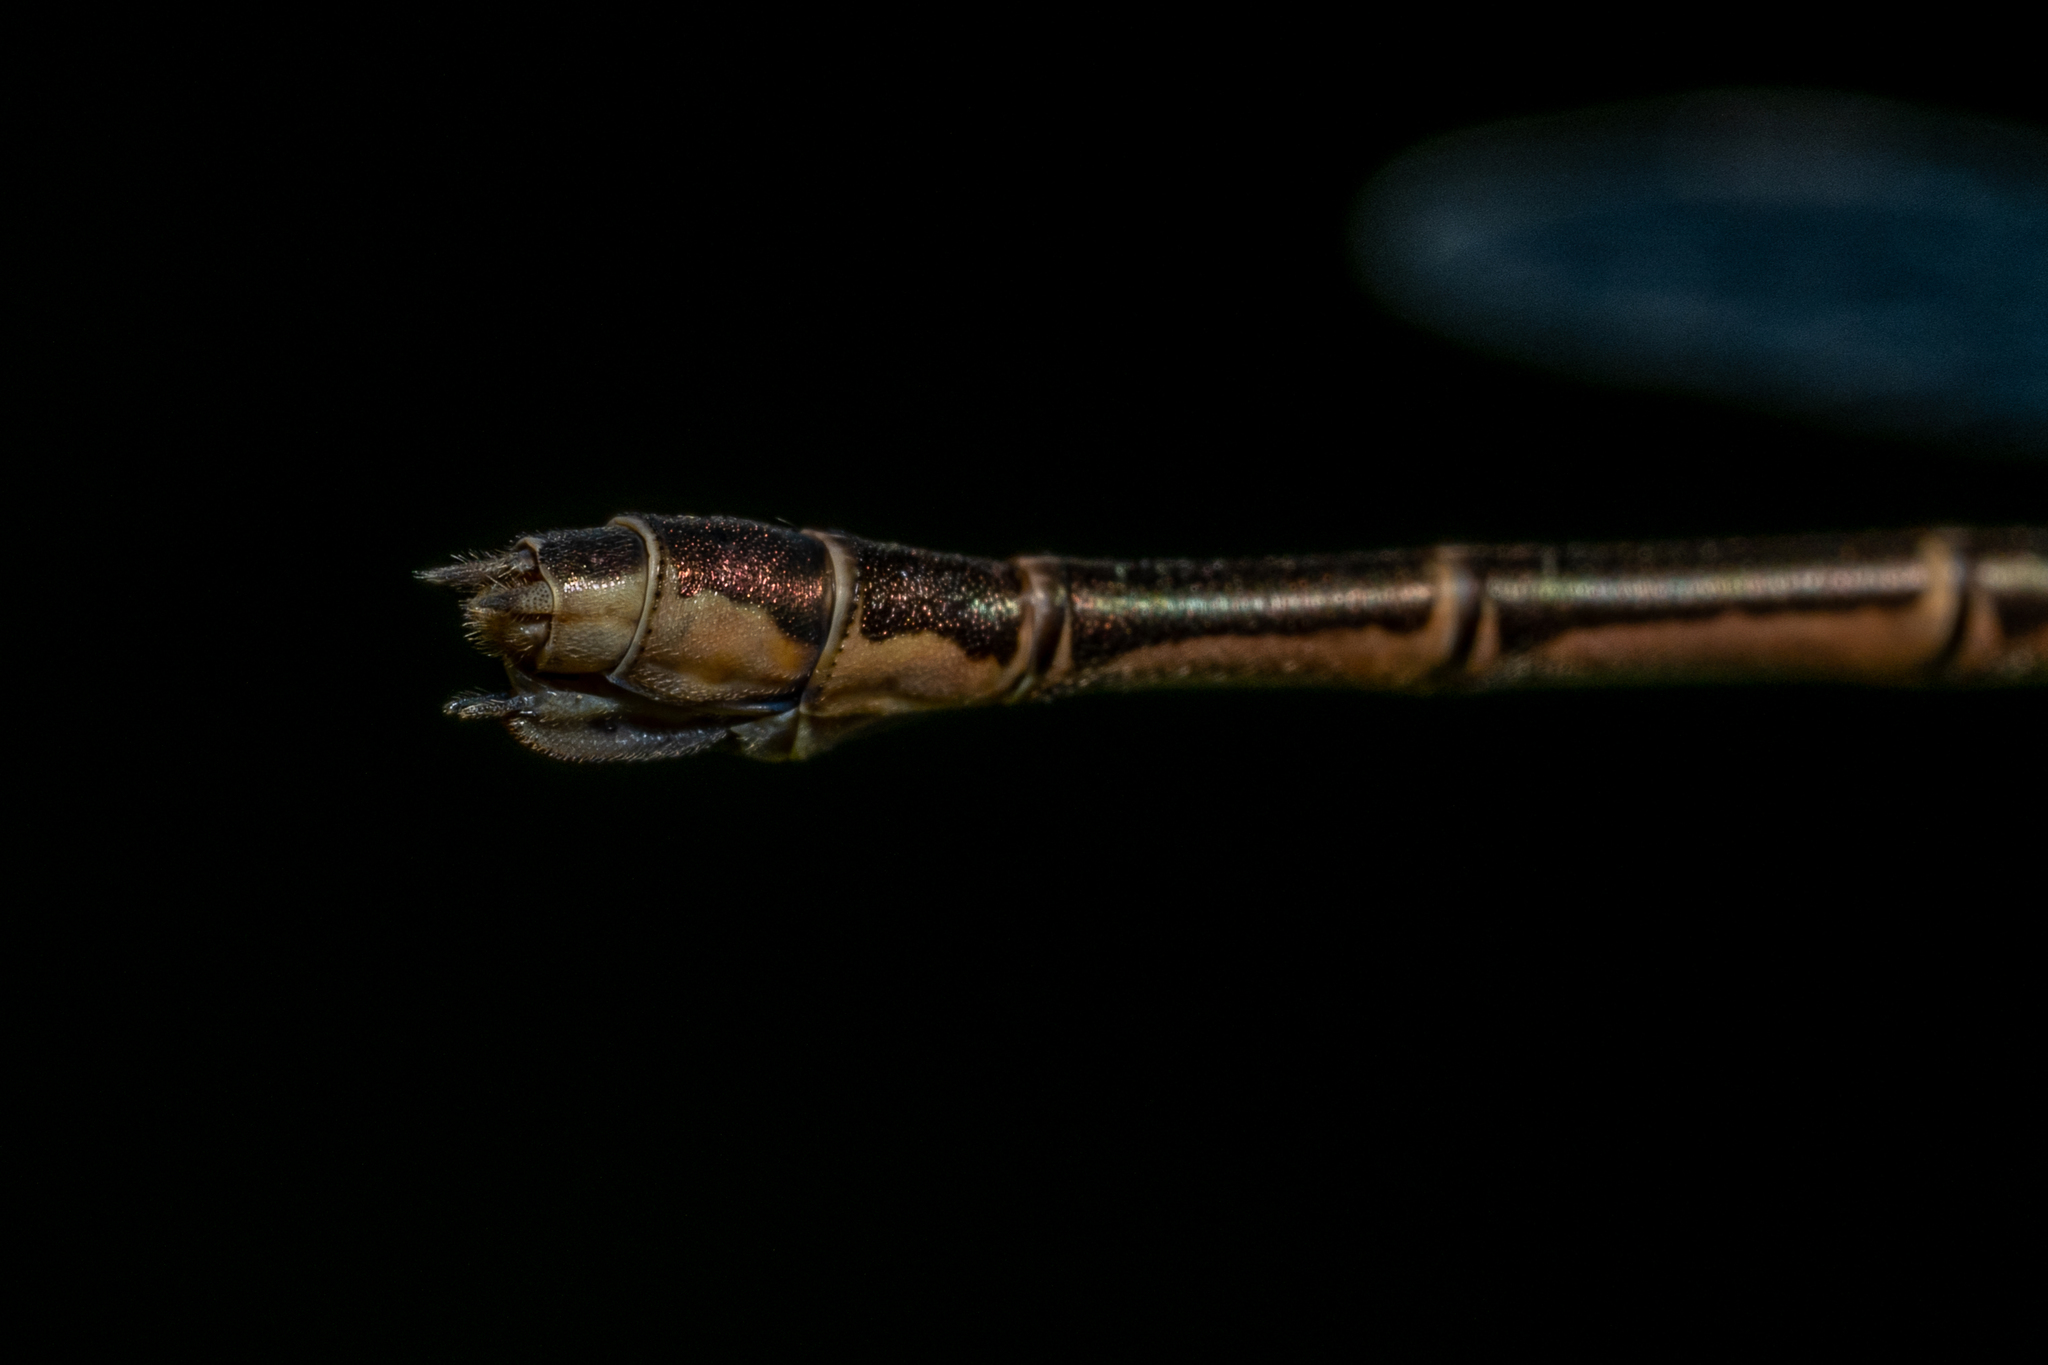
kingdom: Animalia
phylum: Arthropoda
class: Insecta
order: Odonata
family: Lestidae
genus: Lestes
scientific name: Lestes congener
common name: Spotted spreadwing
